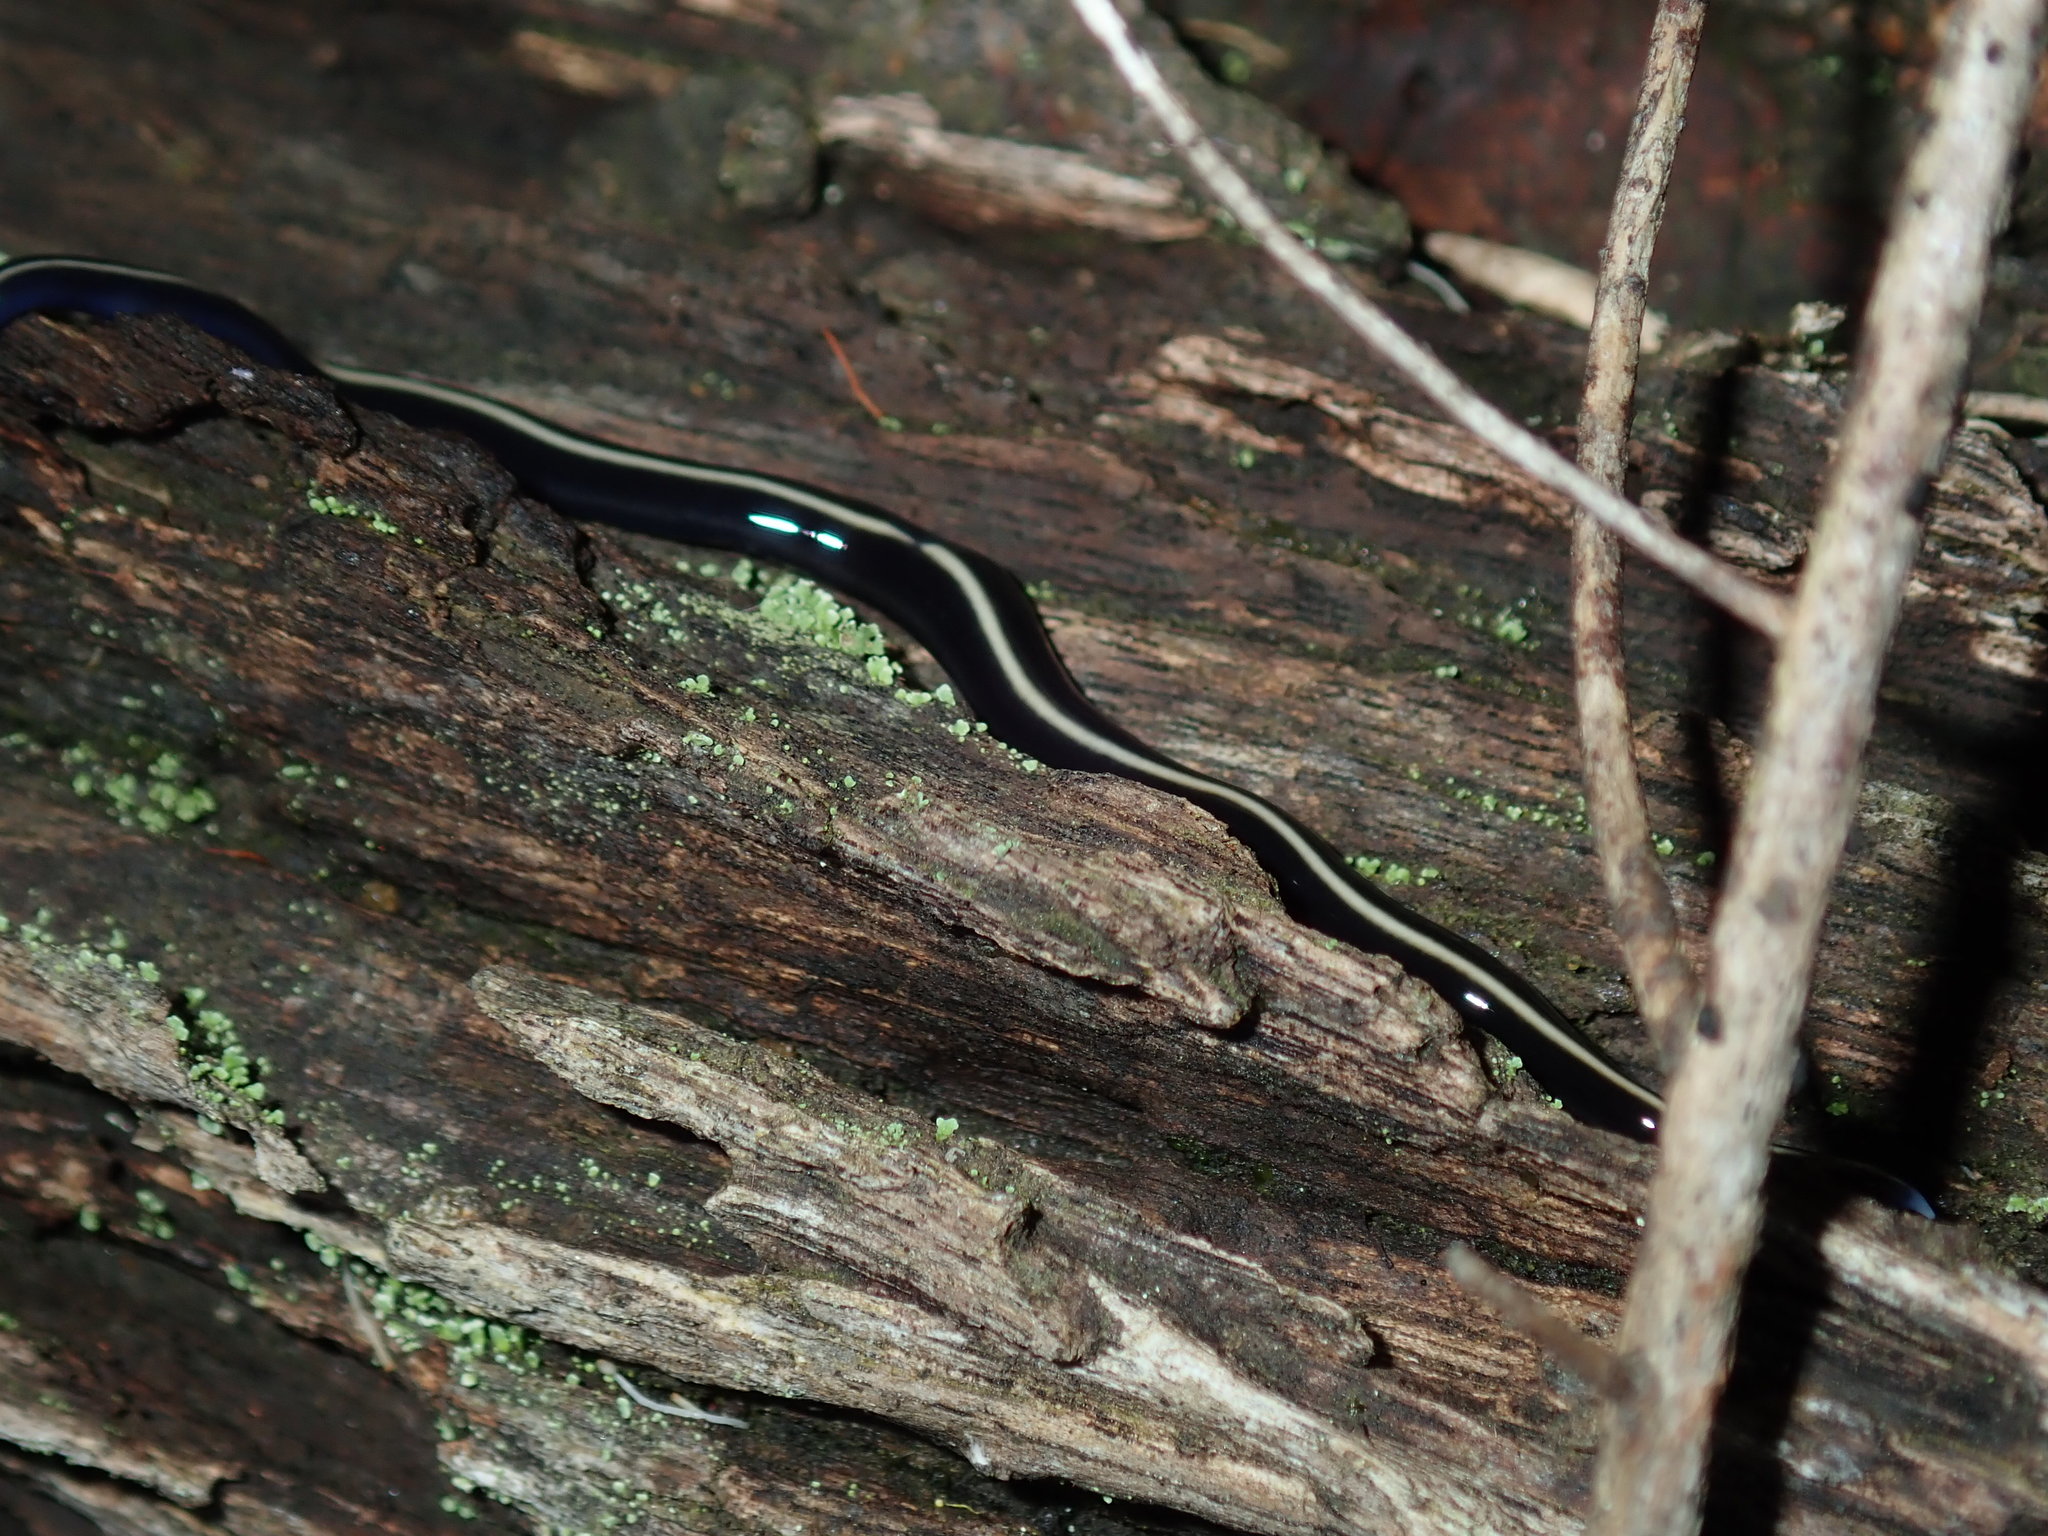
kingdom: Animalia
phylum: Platyhelminthes
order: Tricladida
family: Geoplanidae
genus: Caenoplana
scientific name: Caenoplana coerulea
